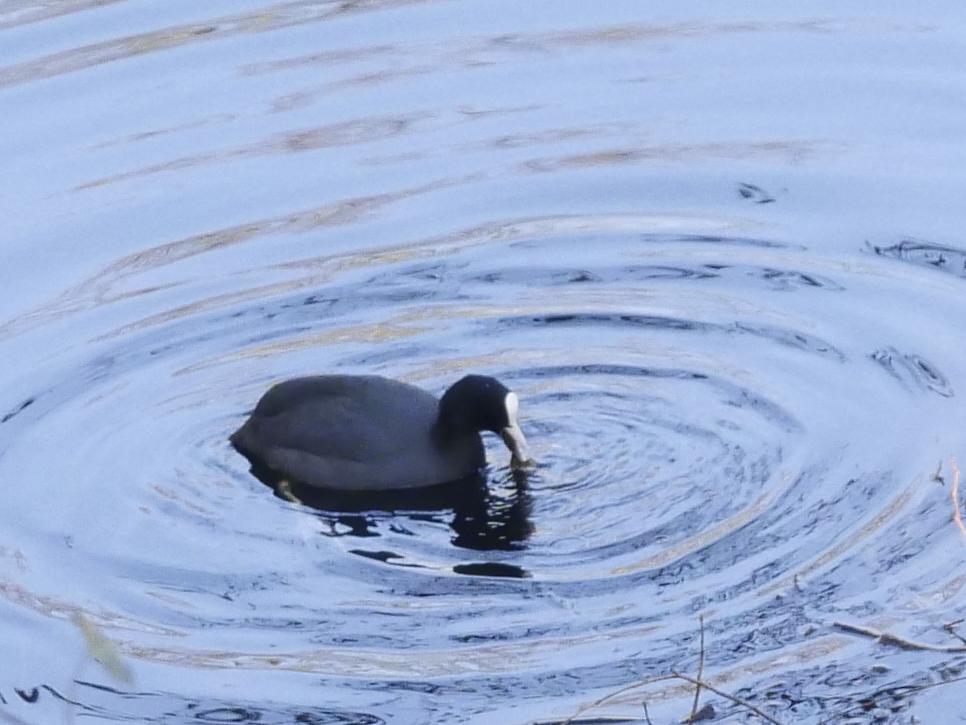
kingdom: Animalia
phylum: Chordata
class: Aves
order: Gruiformes
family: Rallidae
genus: Fulica
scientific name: Fulica atra
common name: Eurasian coot
